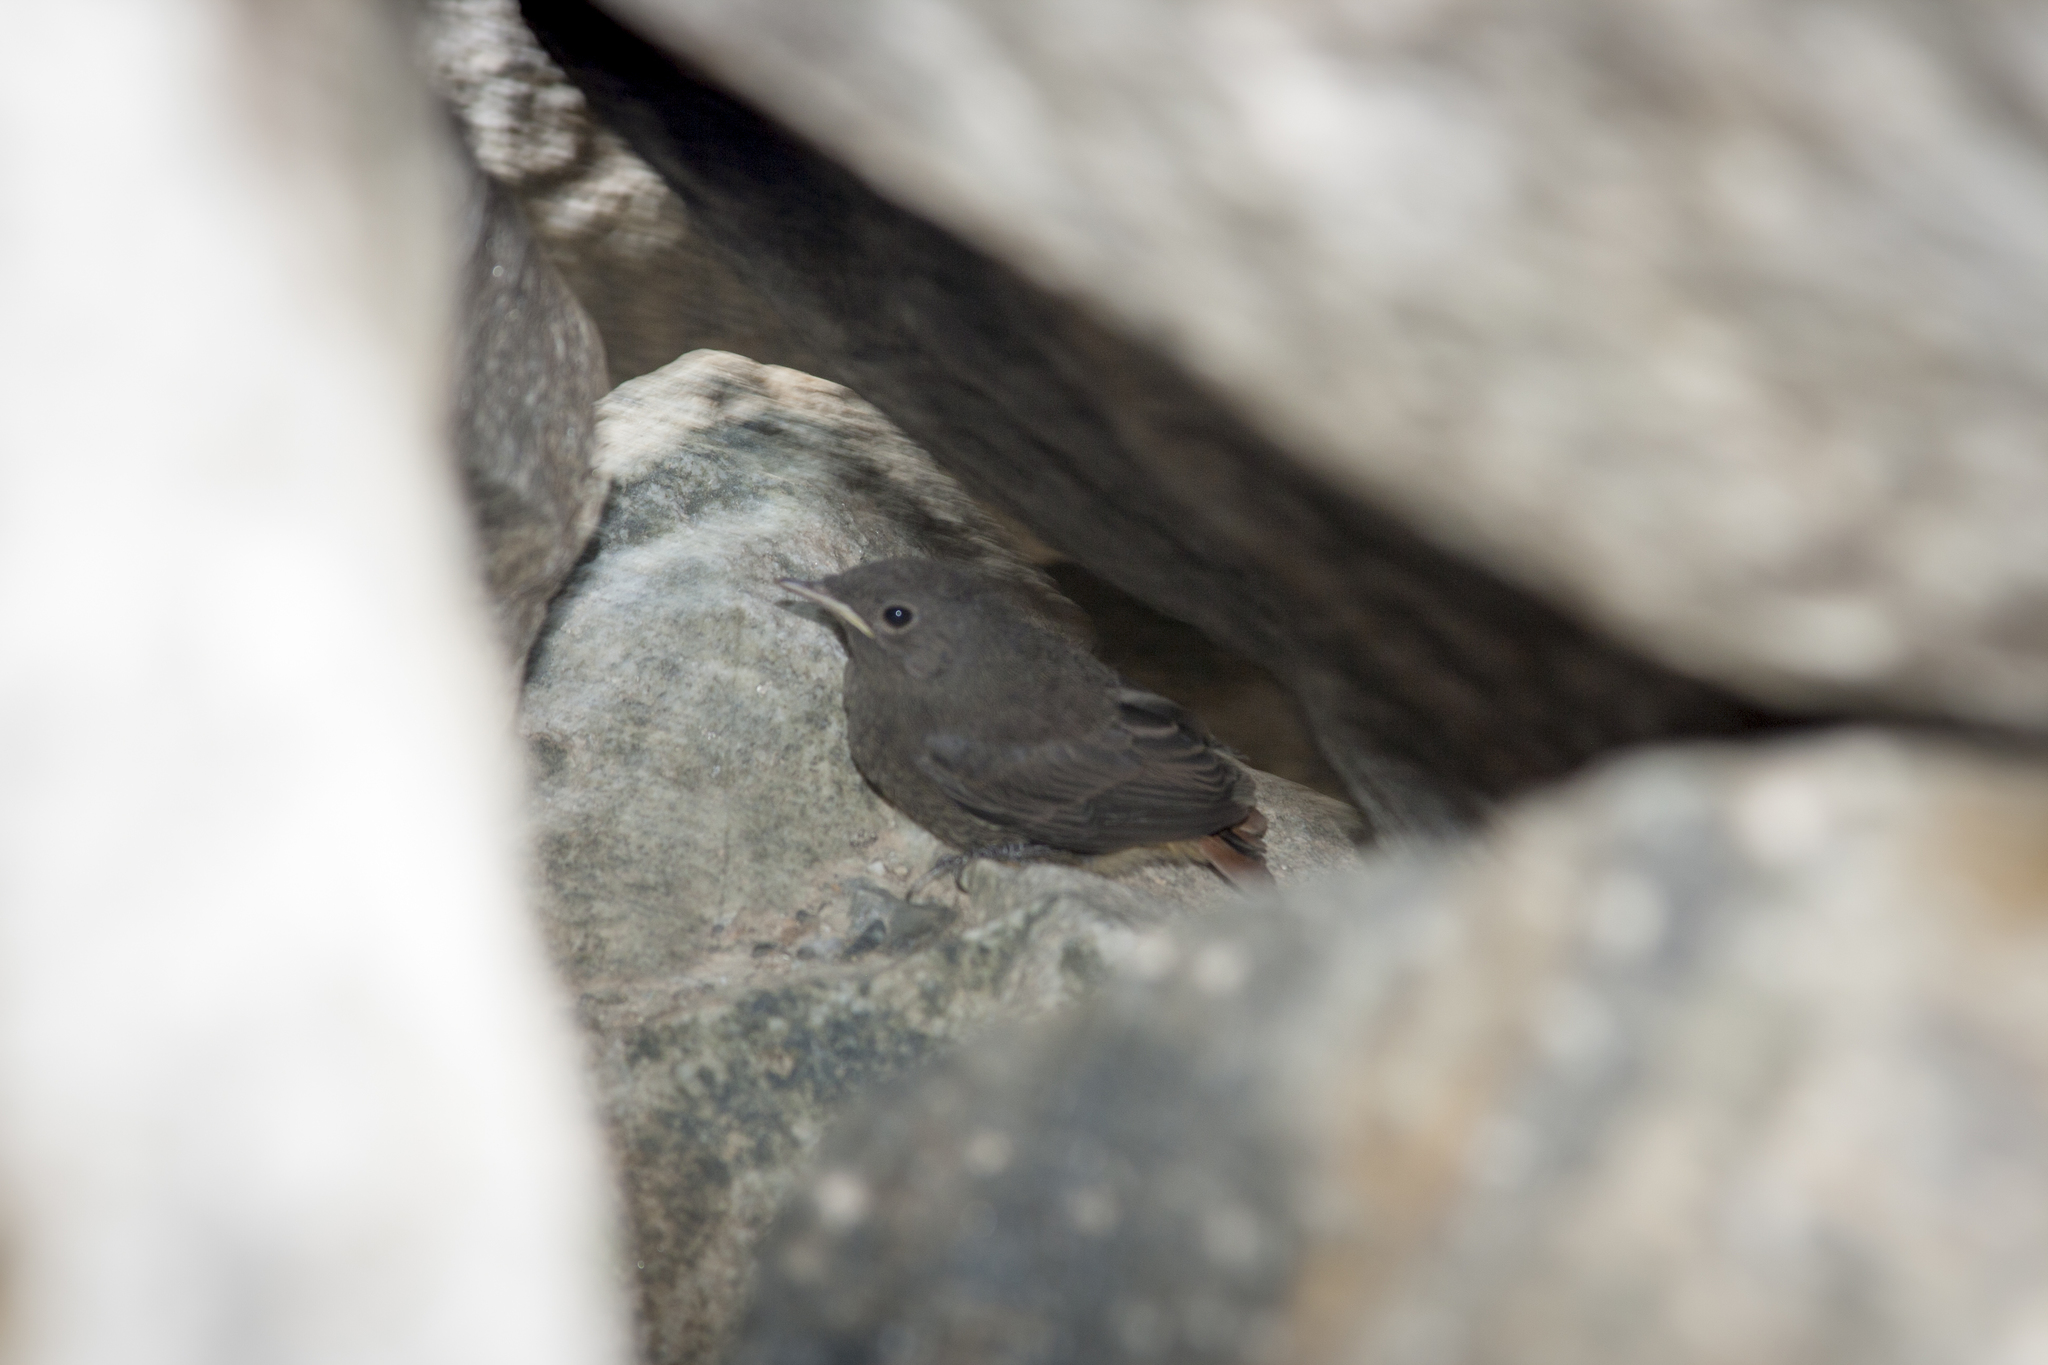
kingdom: Animalia
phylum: Chordata
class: Aves
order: Passeriformes
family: Muscicapidae
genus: Phoenicurus
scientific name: Phoenicurus ochruros
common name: Black redstart
